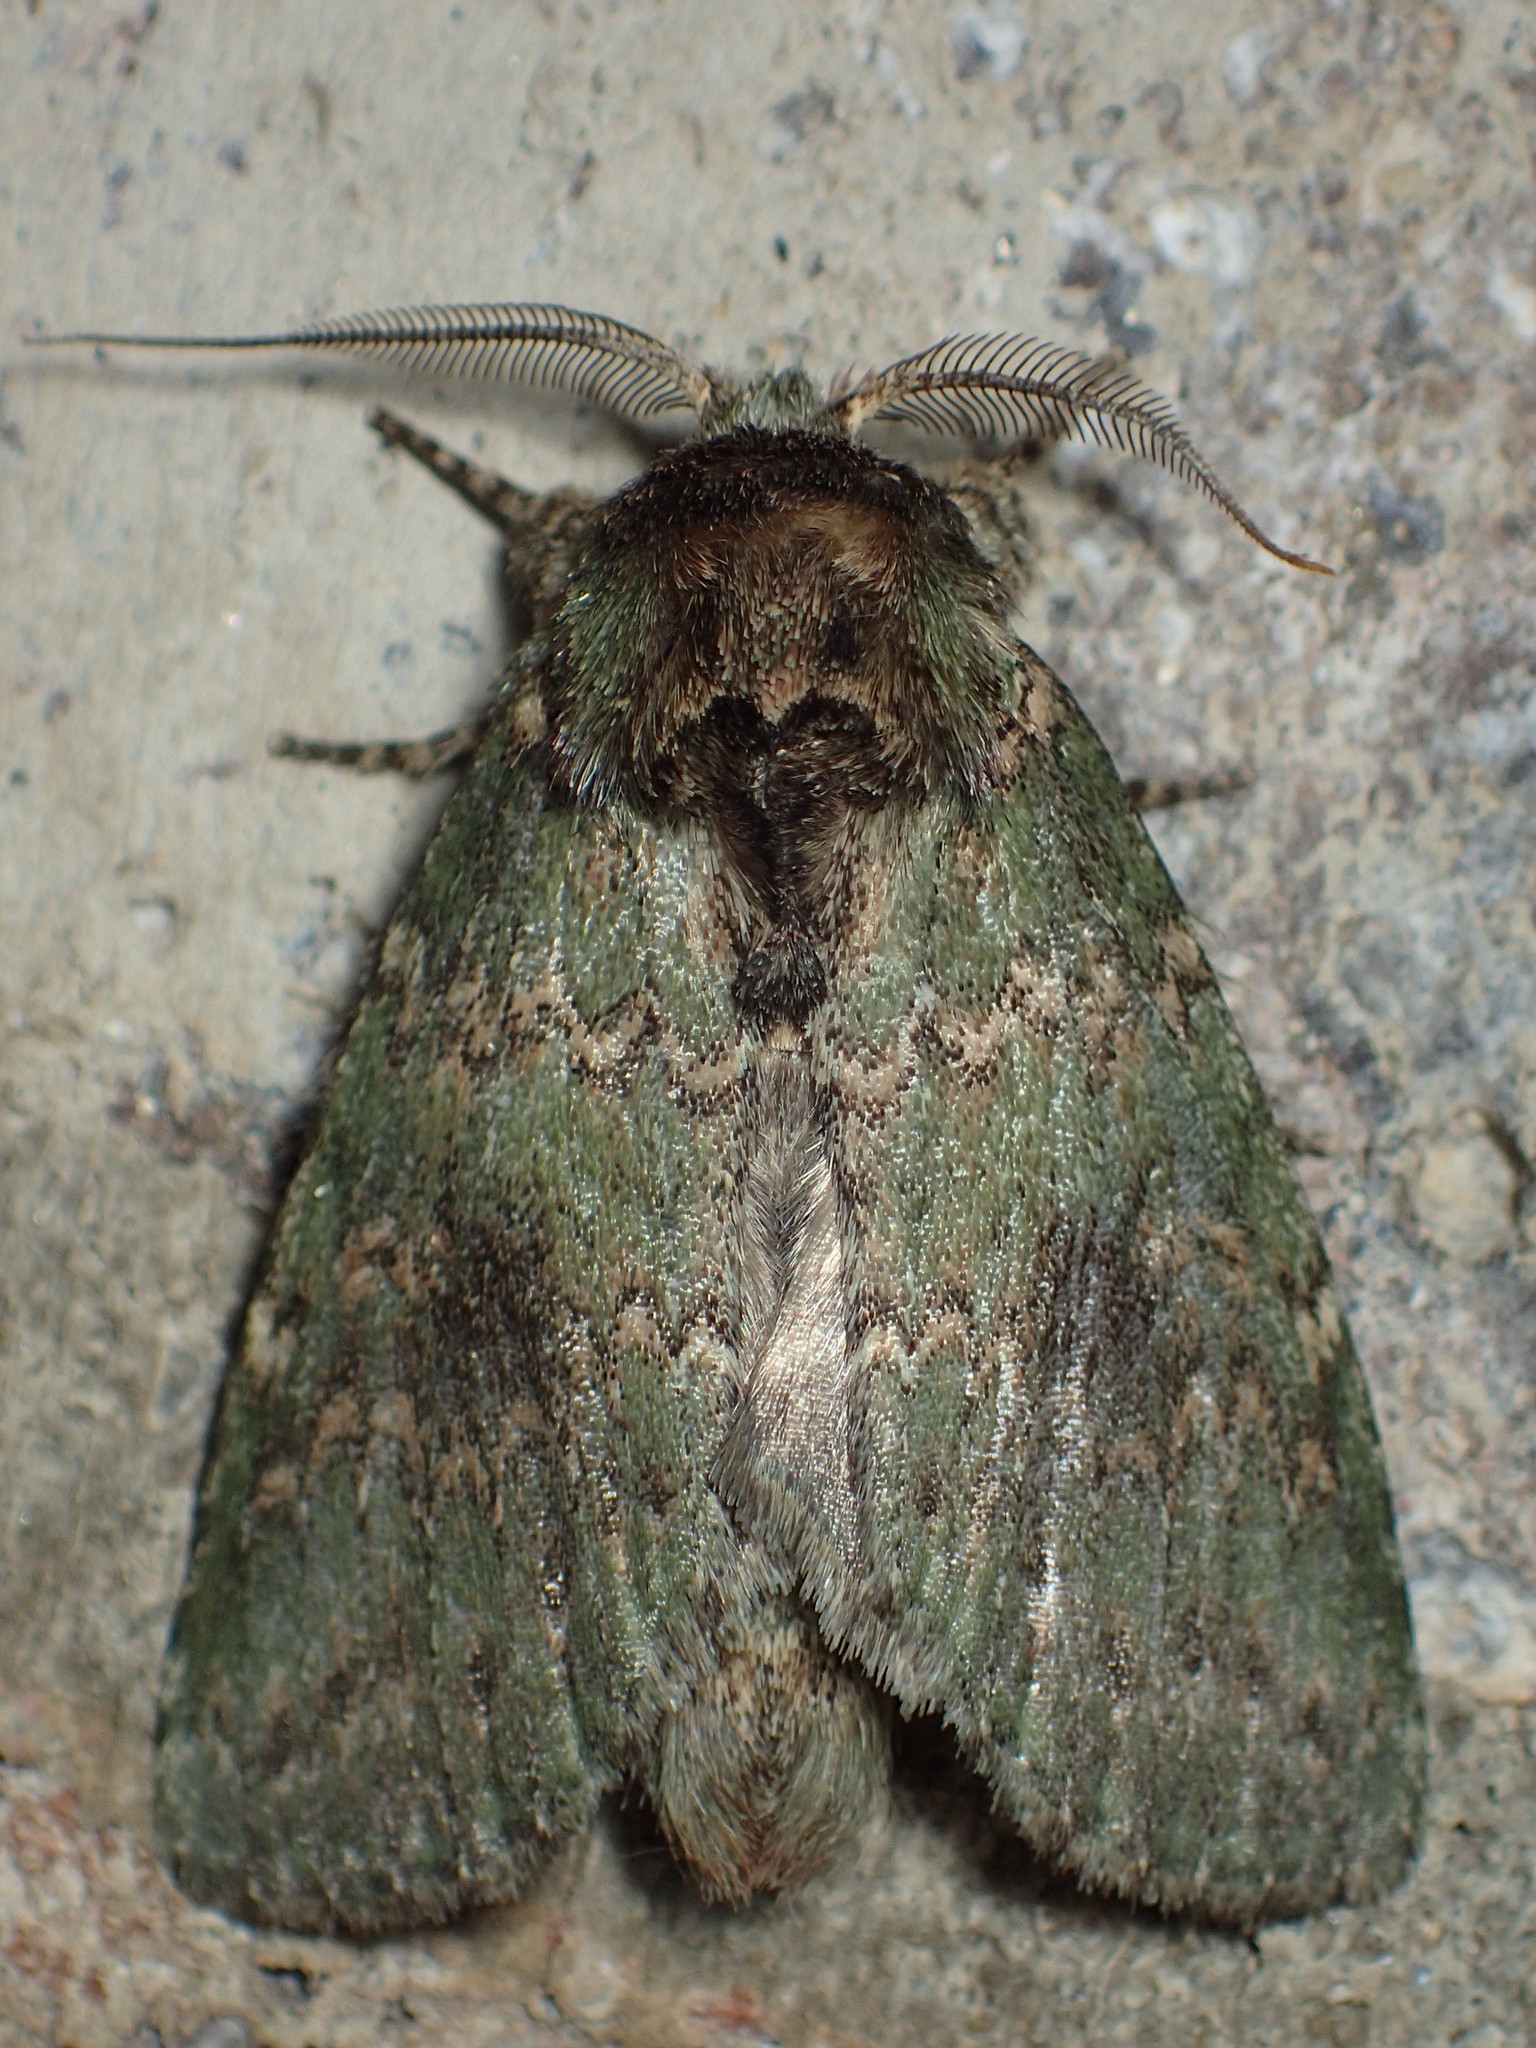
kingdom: Animalia
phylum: Arthropoda
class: Insecta
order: Lepidoptera
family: Notodontidae
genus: Disphragis
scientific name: Disphragis Cecrita biundata
